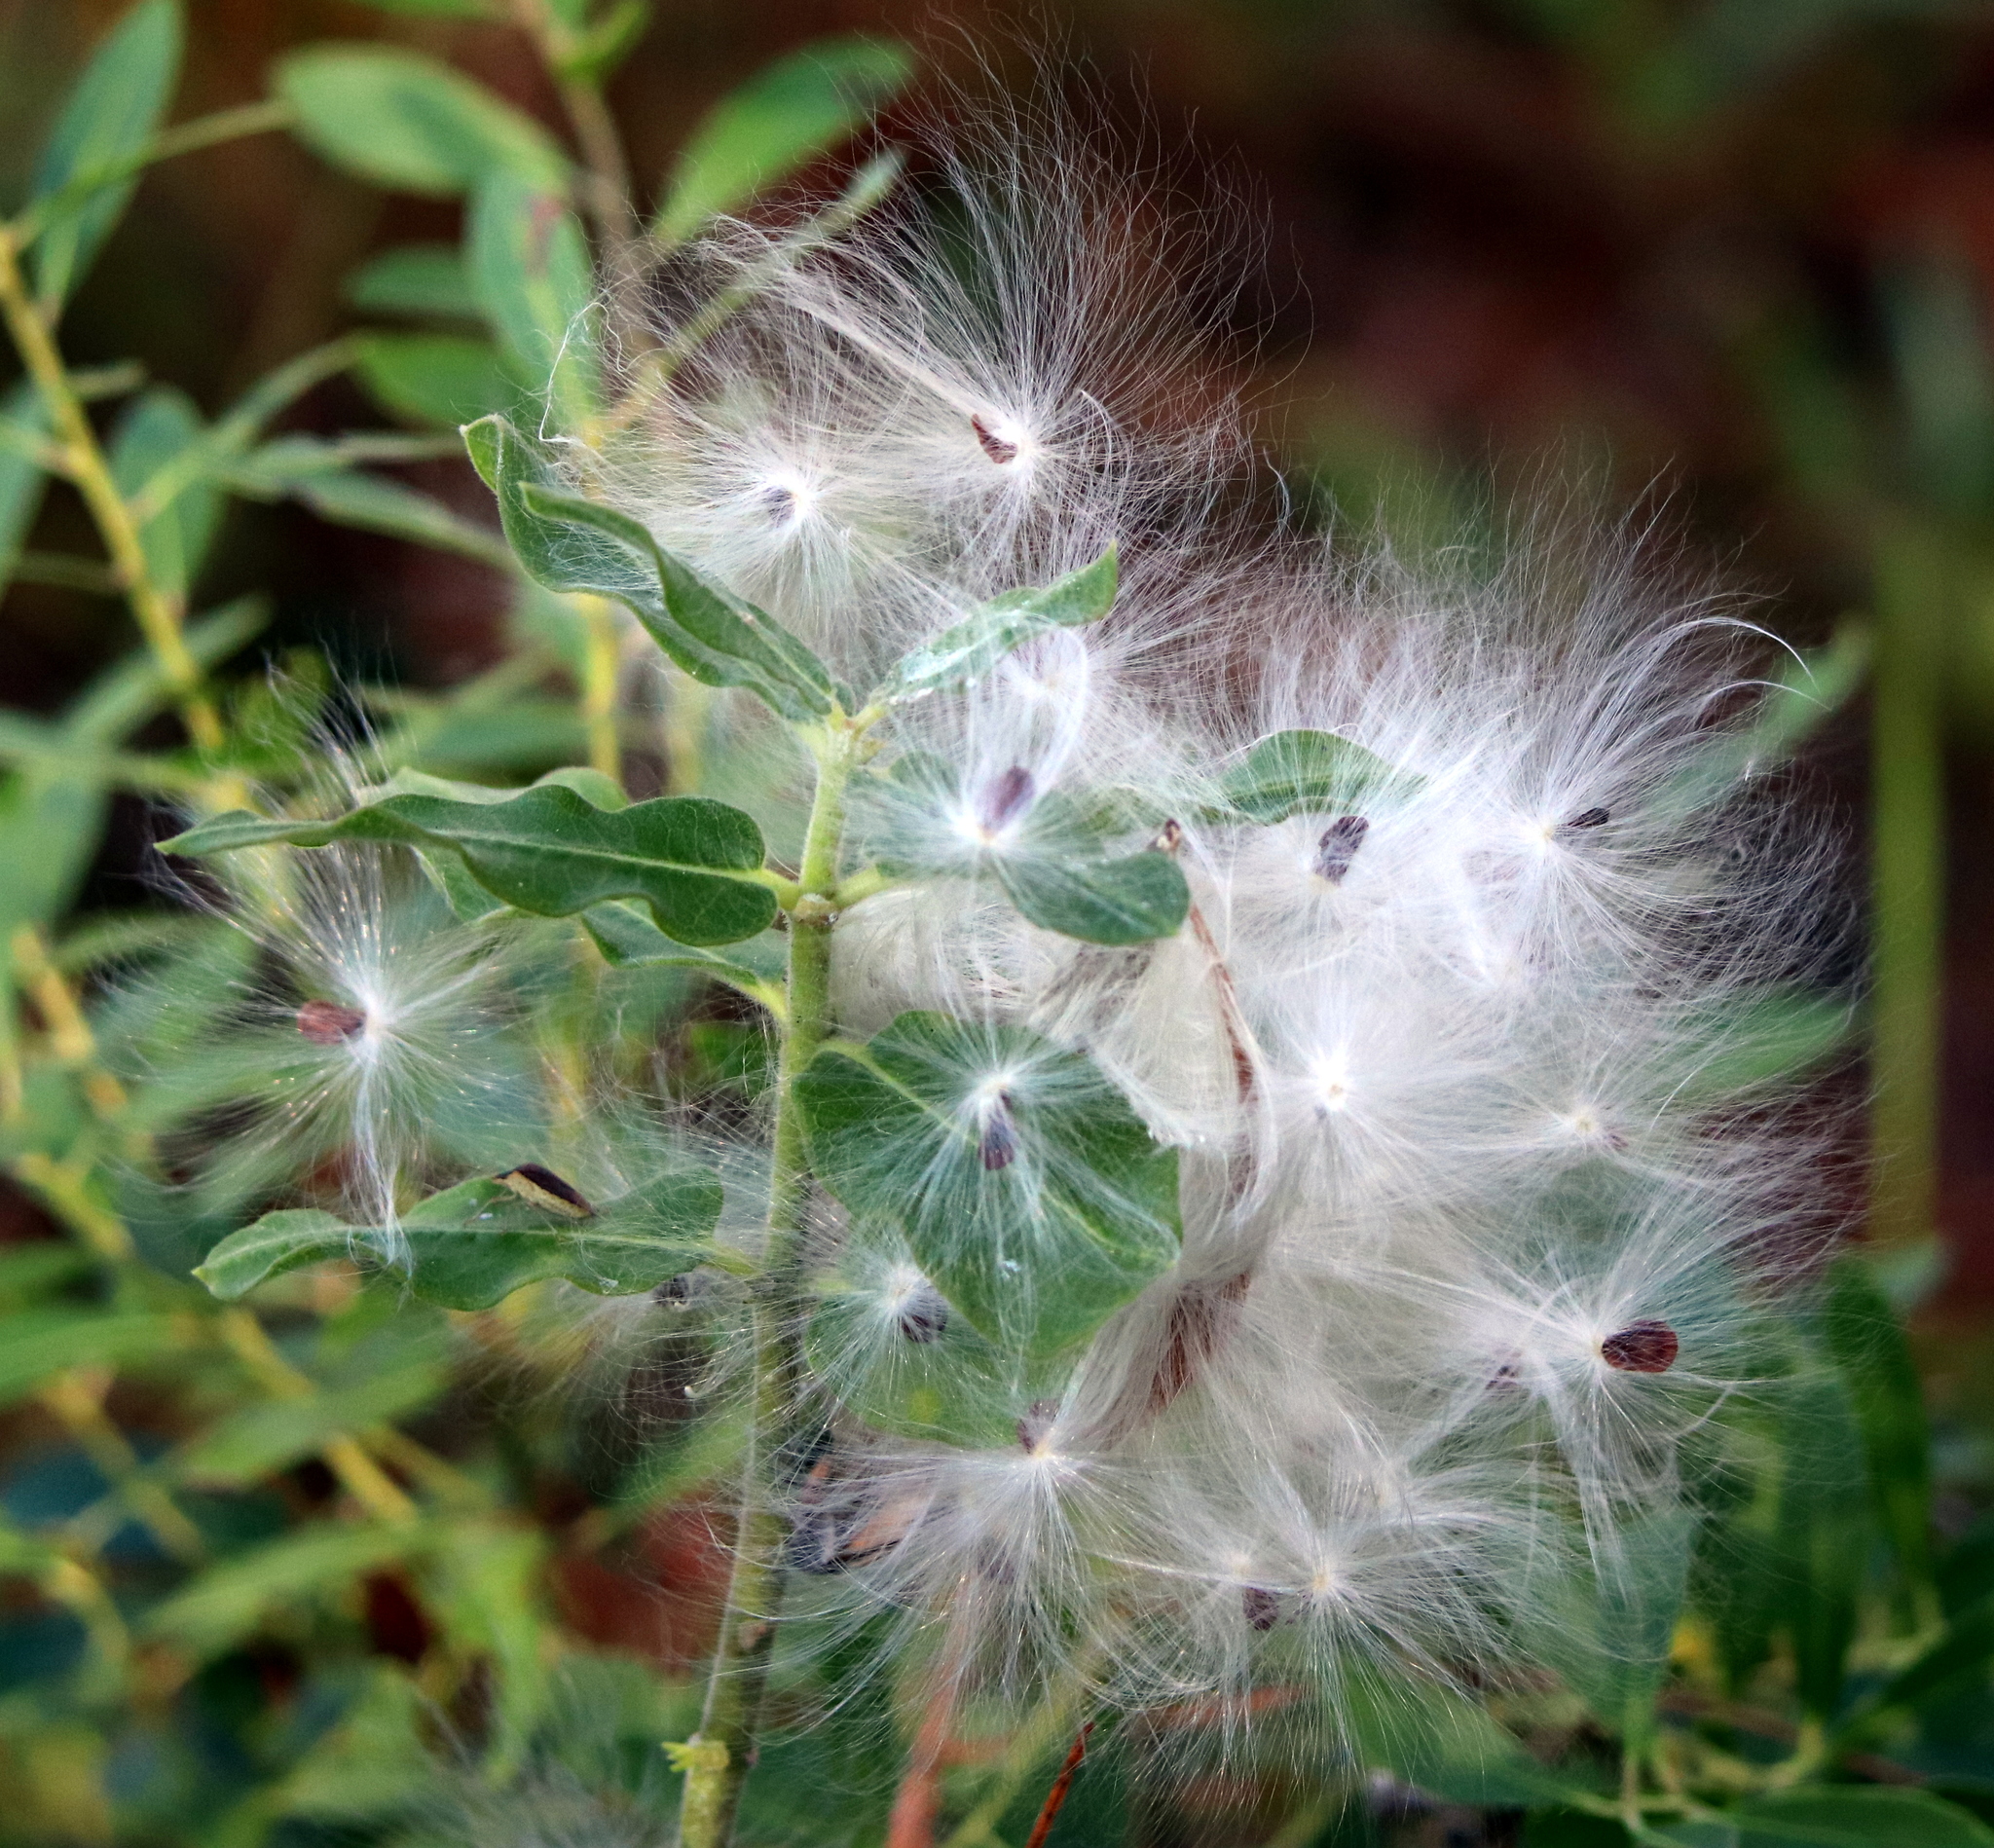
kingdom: Plantae
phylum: Tracheophyta
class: Magnoliopsida
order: Gentianales
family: Apocynaceae
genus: Asclepias
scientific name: Asclepias obovata
